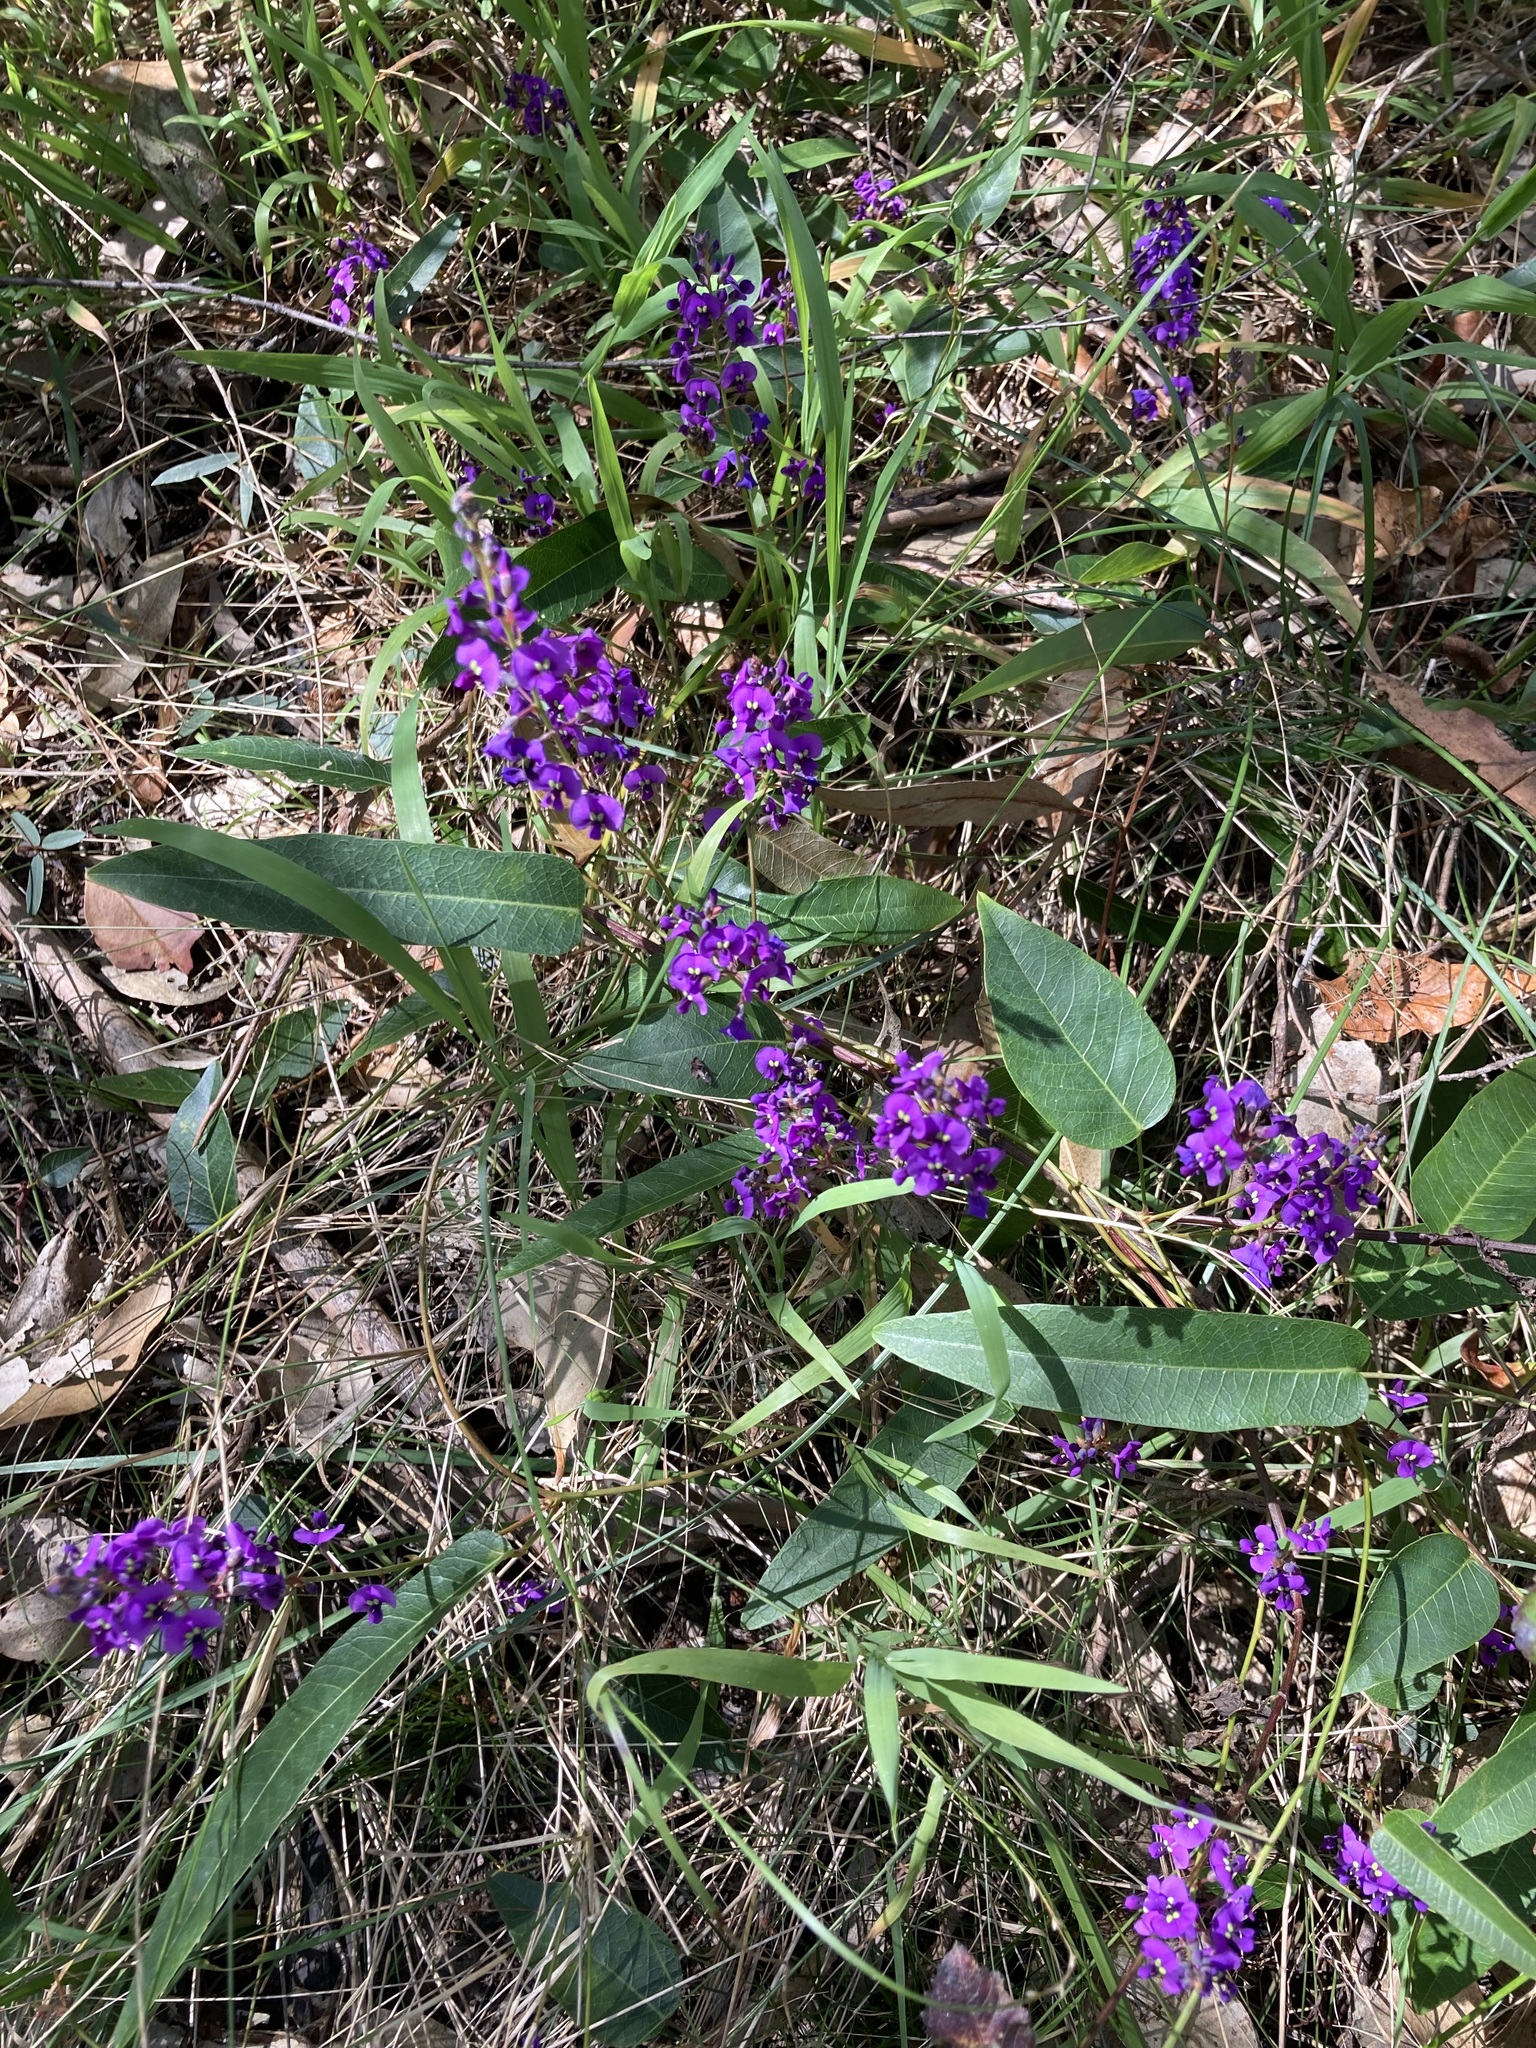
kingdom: Plantae
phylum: Tracheophyta
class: Magnoliopsida
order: Fabales
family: Fabaceae
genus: Hardenbergia
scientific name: Hardenbergia violacea
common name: Coral-pea
